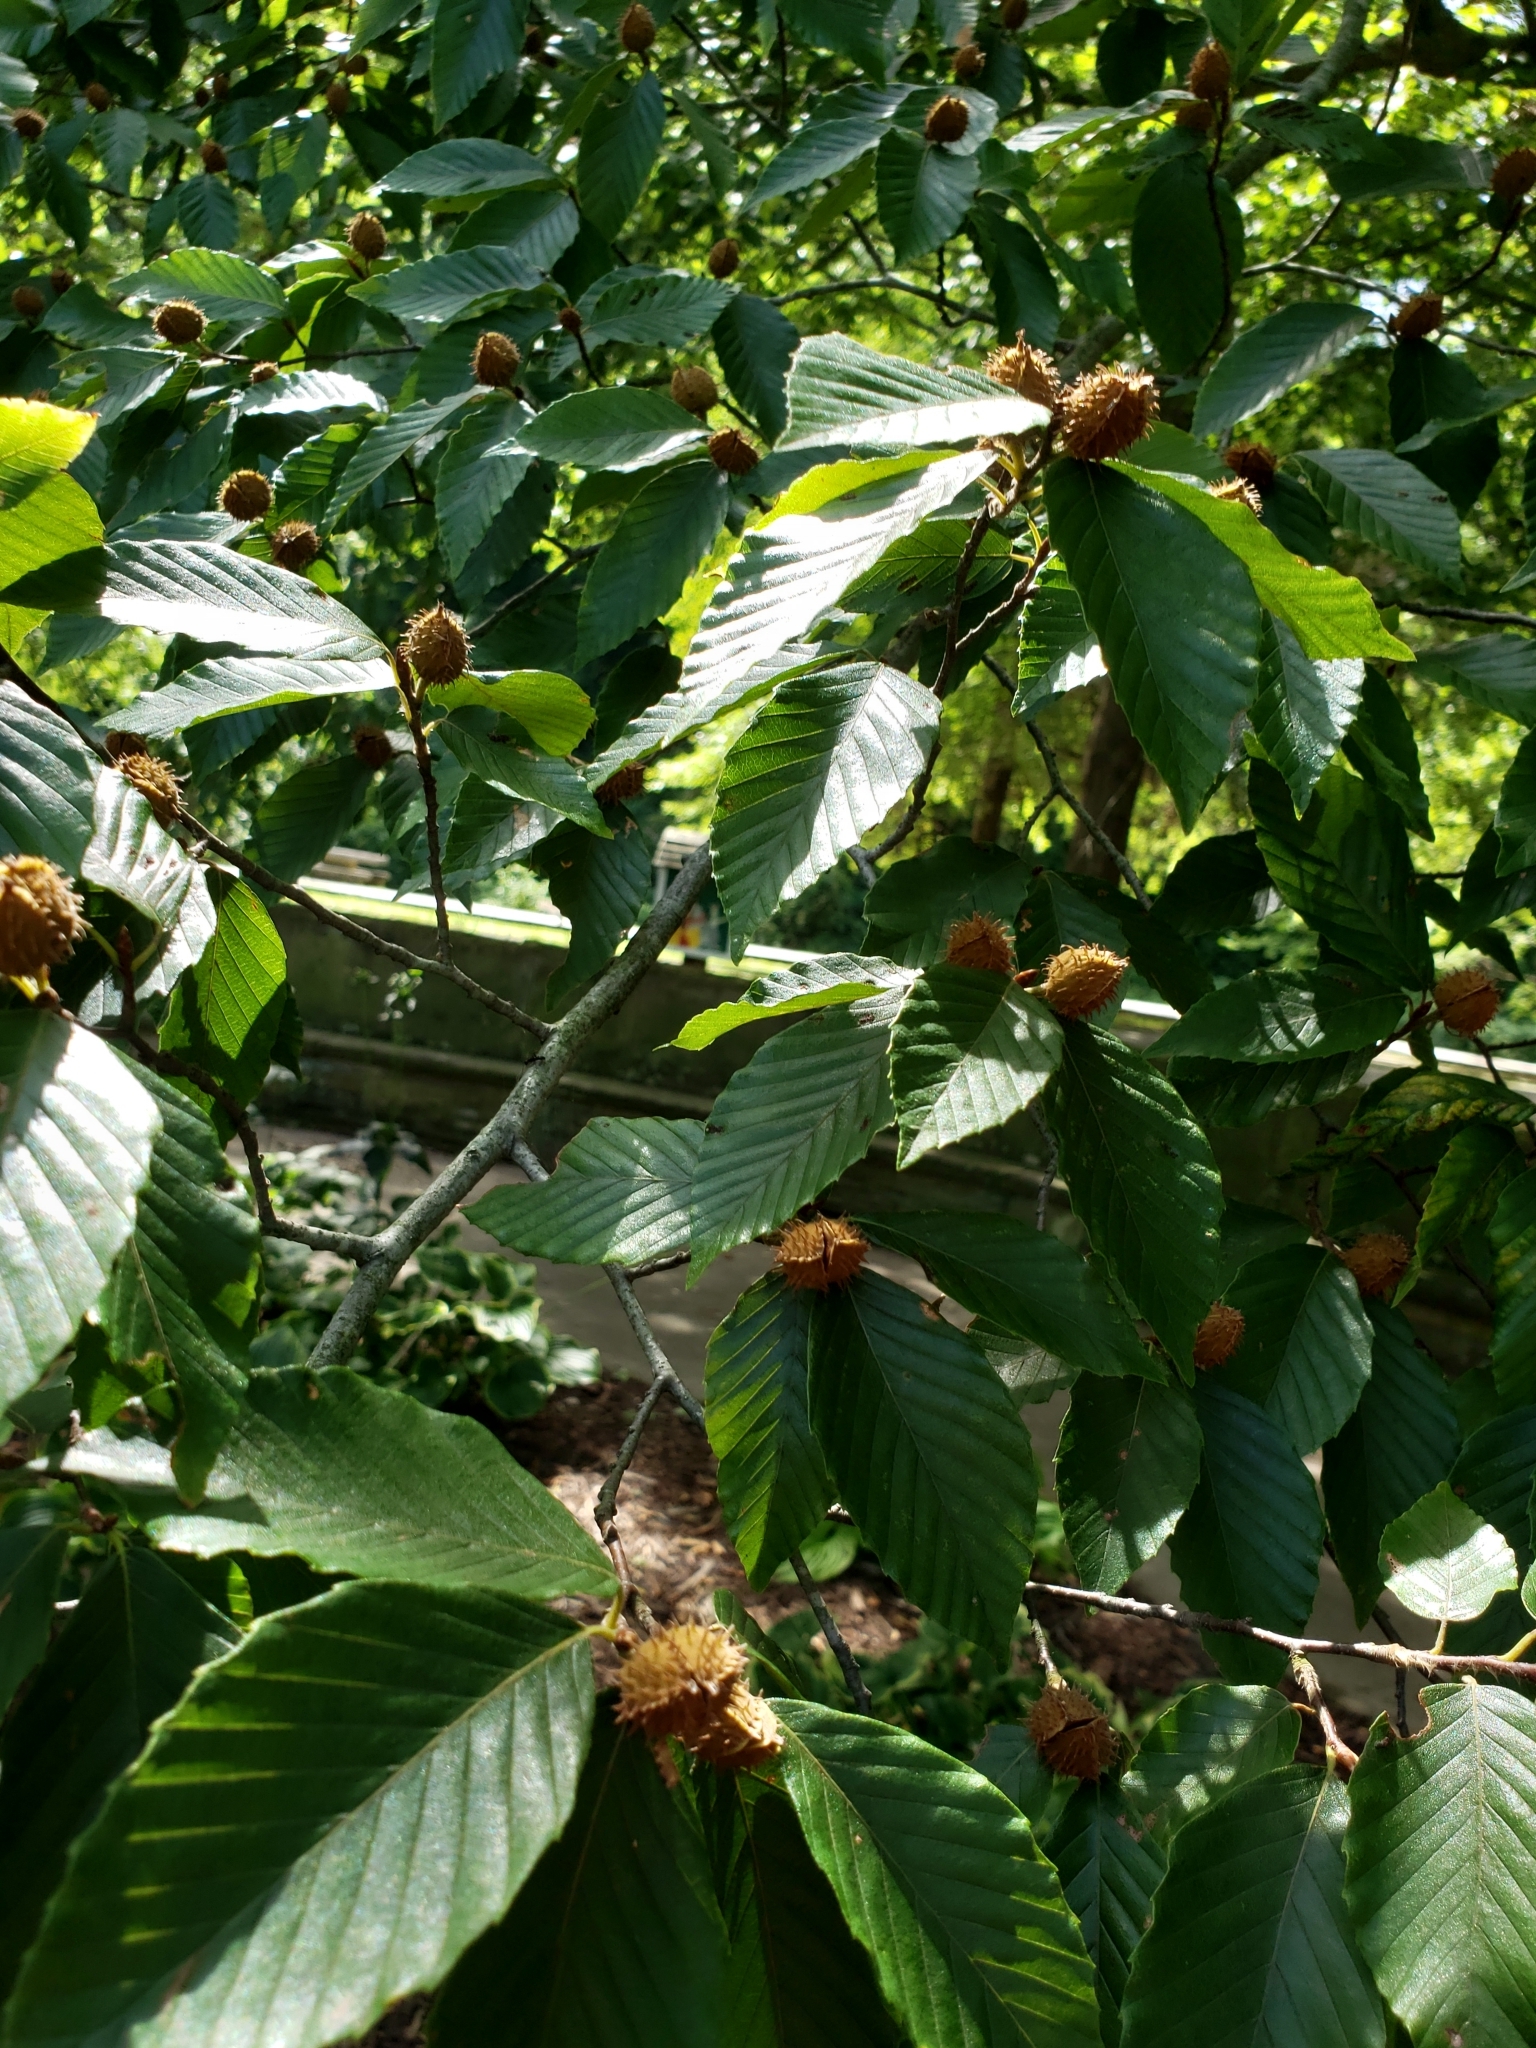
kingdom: Plantae
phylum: Tracheophyta
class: Magnoliopsida
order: Fagales
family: Fagaceae
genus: Fagus
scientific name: Fagus grandifolia
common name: American beech
